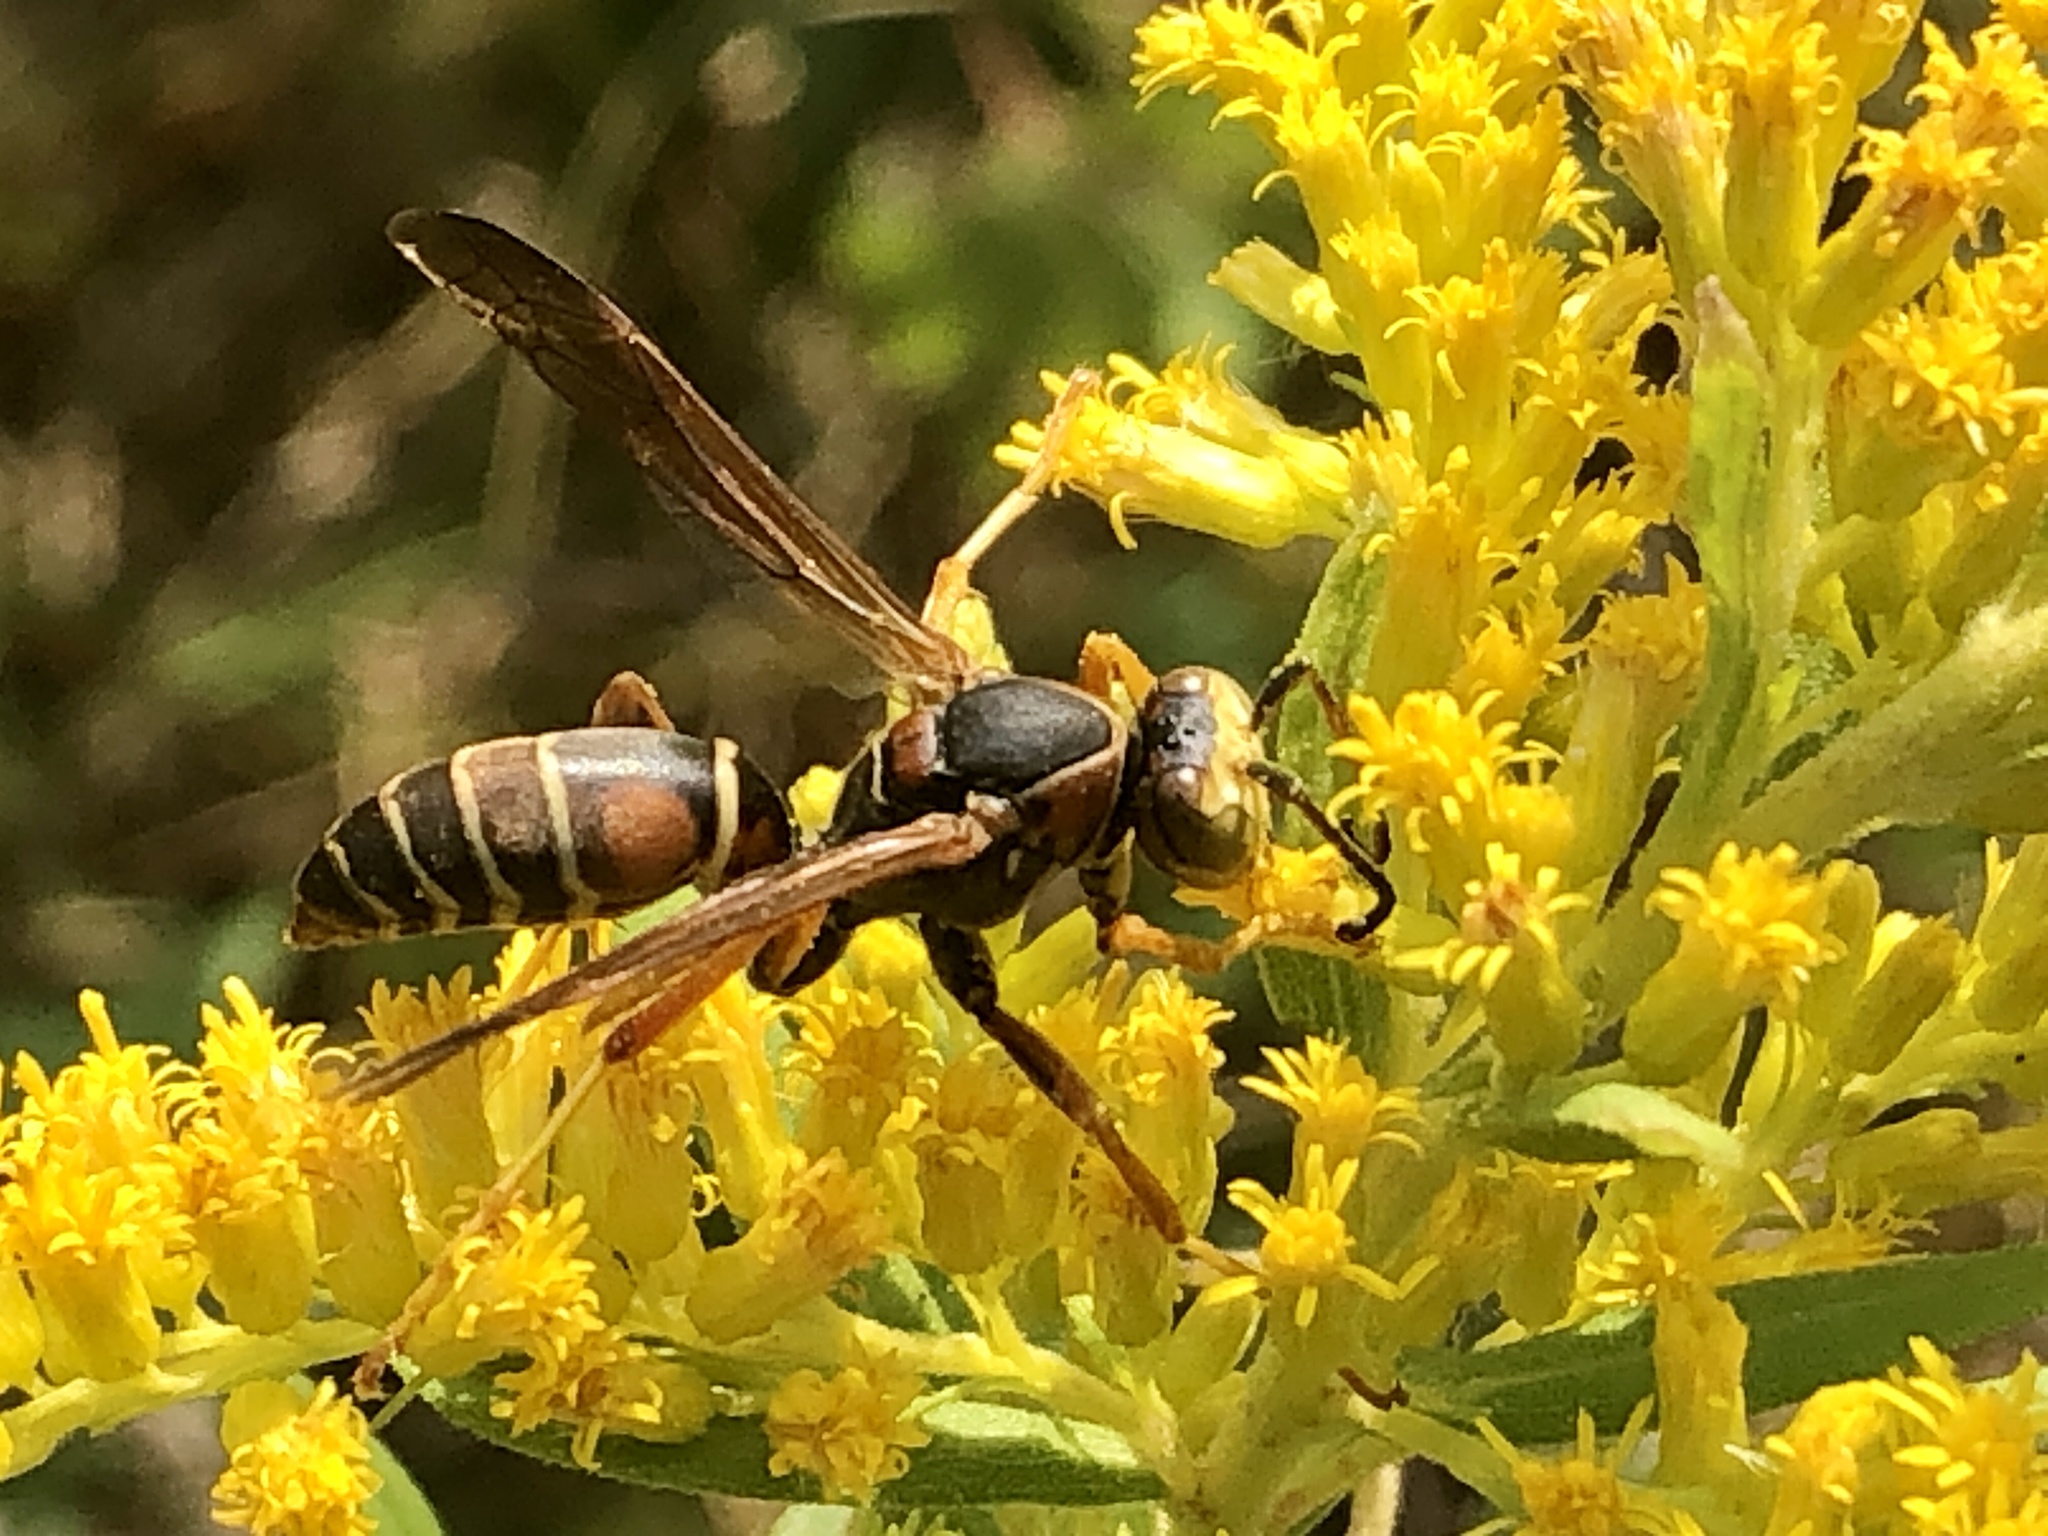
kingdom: Animalia
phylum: Arthropoda
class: Insecta
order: Hymenoptera
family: Eumenidae
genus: Polistes
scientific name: Polistes fuscatus
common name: Dark paper wasp
